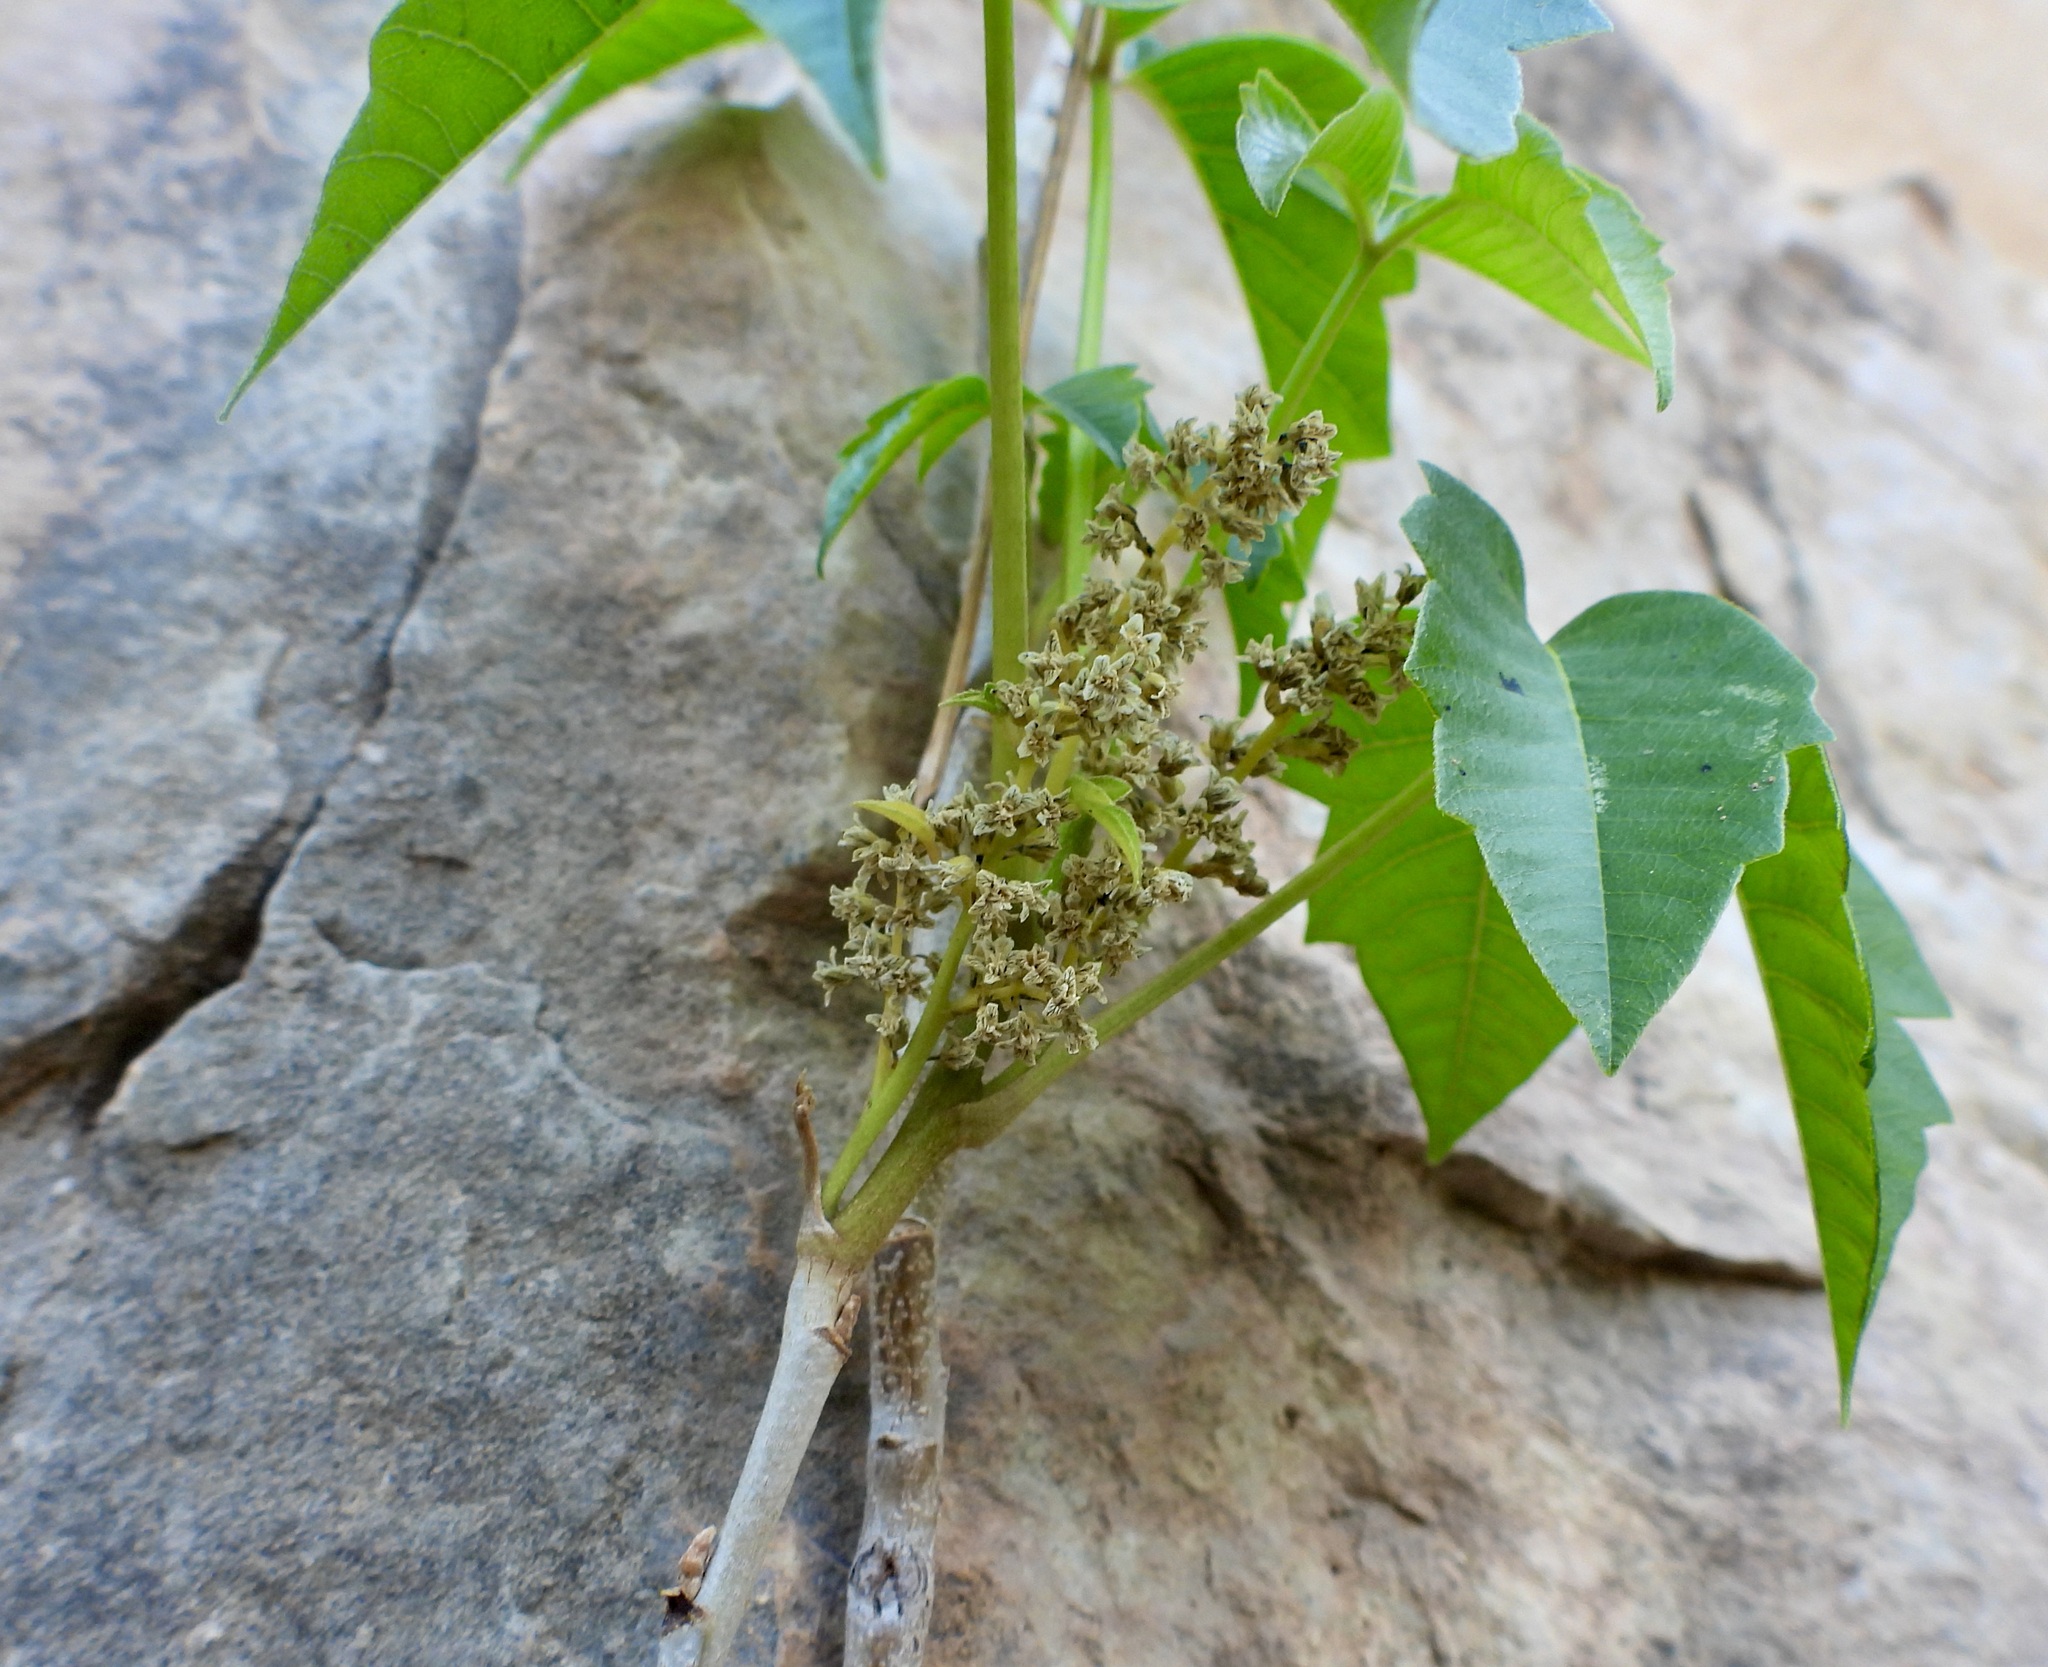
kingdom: Plantae
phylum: Tracheophyta
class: Magnoliopsida
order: Sapindales
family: Anacardiaceae
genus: Toxicodendron
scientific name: Toxicodendron rydbergii
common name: Rydberg's poison-ivy
